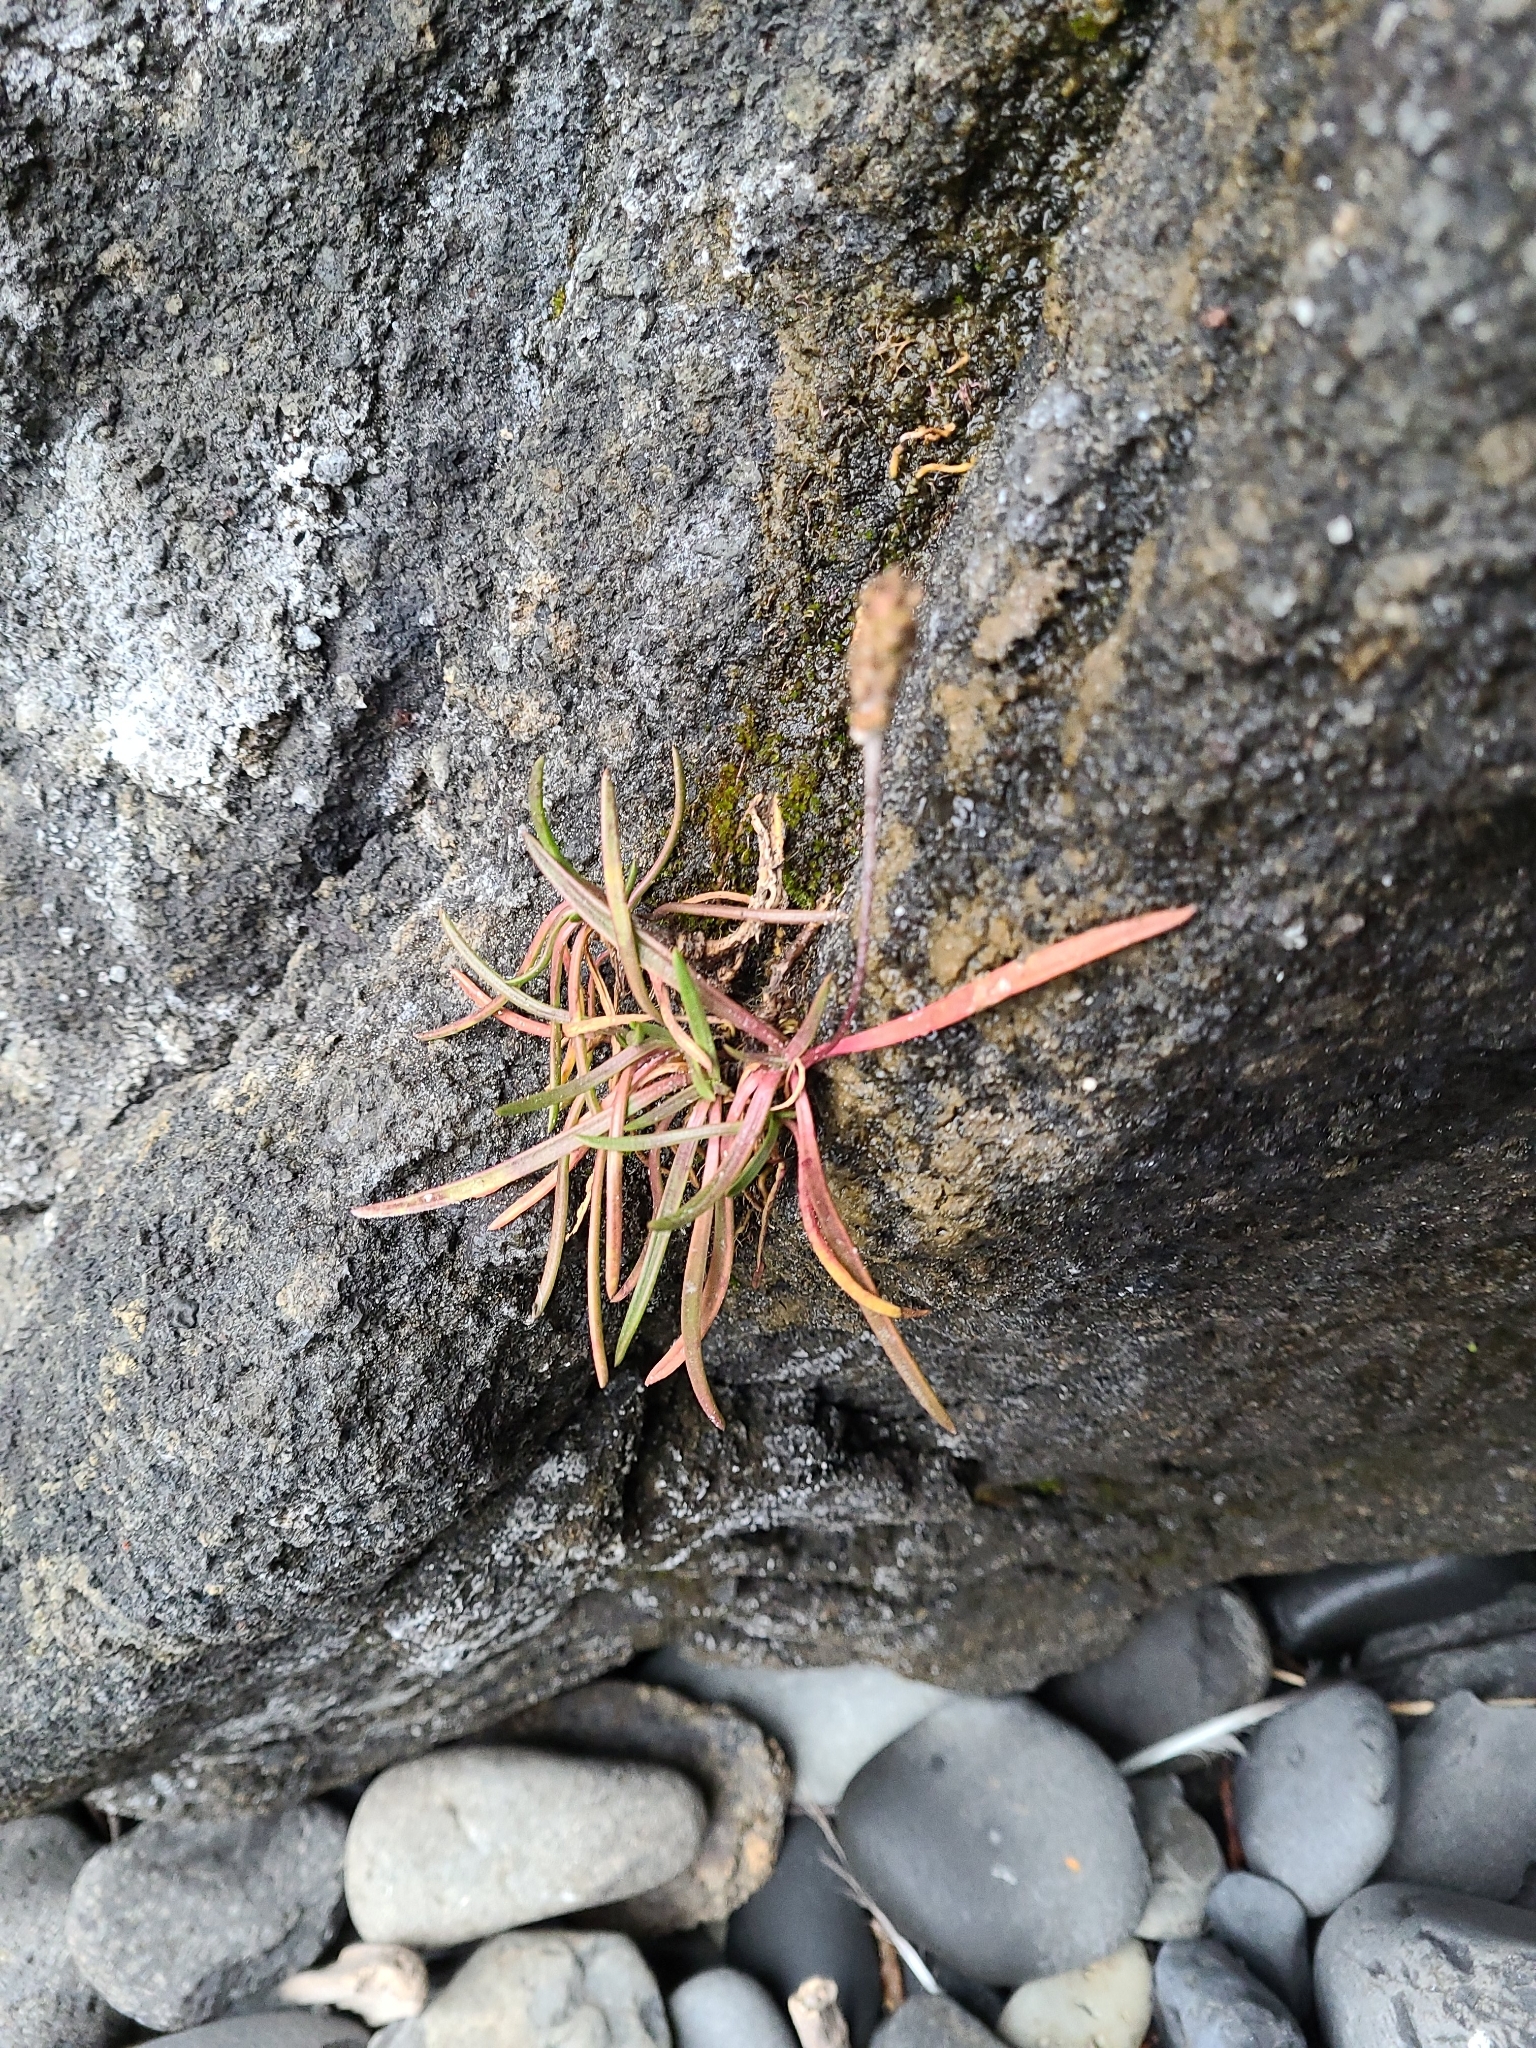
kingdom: Plantae
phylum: Tracheophyta
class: Magnoliopsida
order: Lamiales
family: Plantaginaceae
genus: Plantago
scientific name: Plantago maritima
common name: Sea plantain
